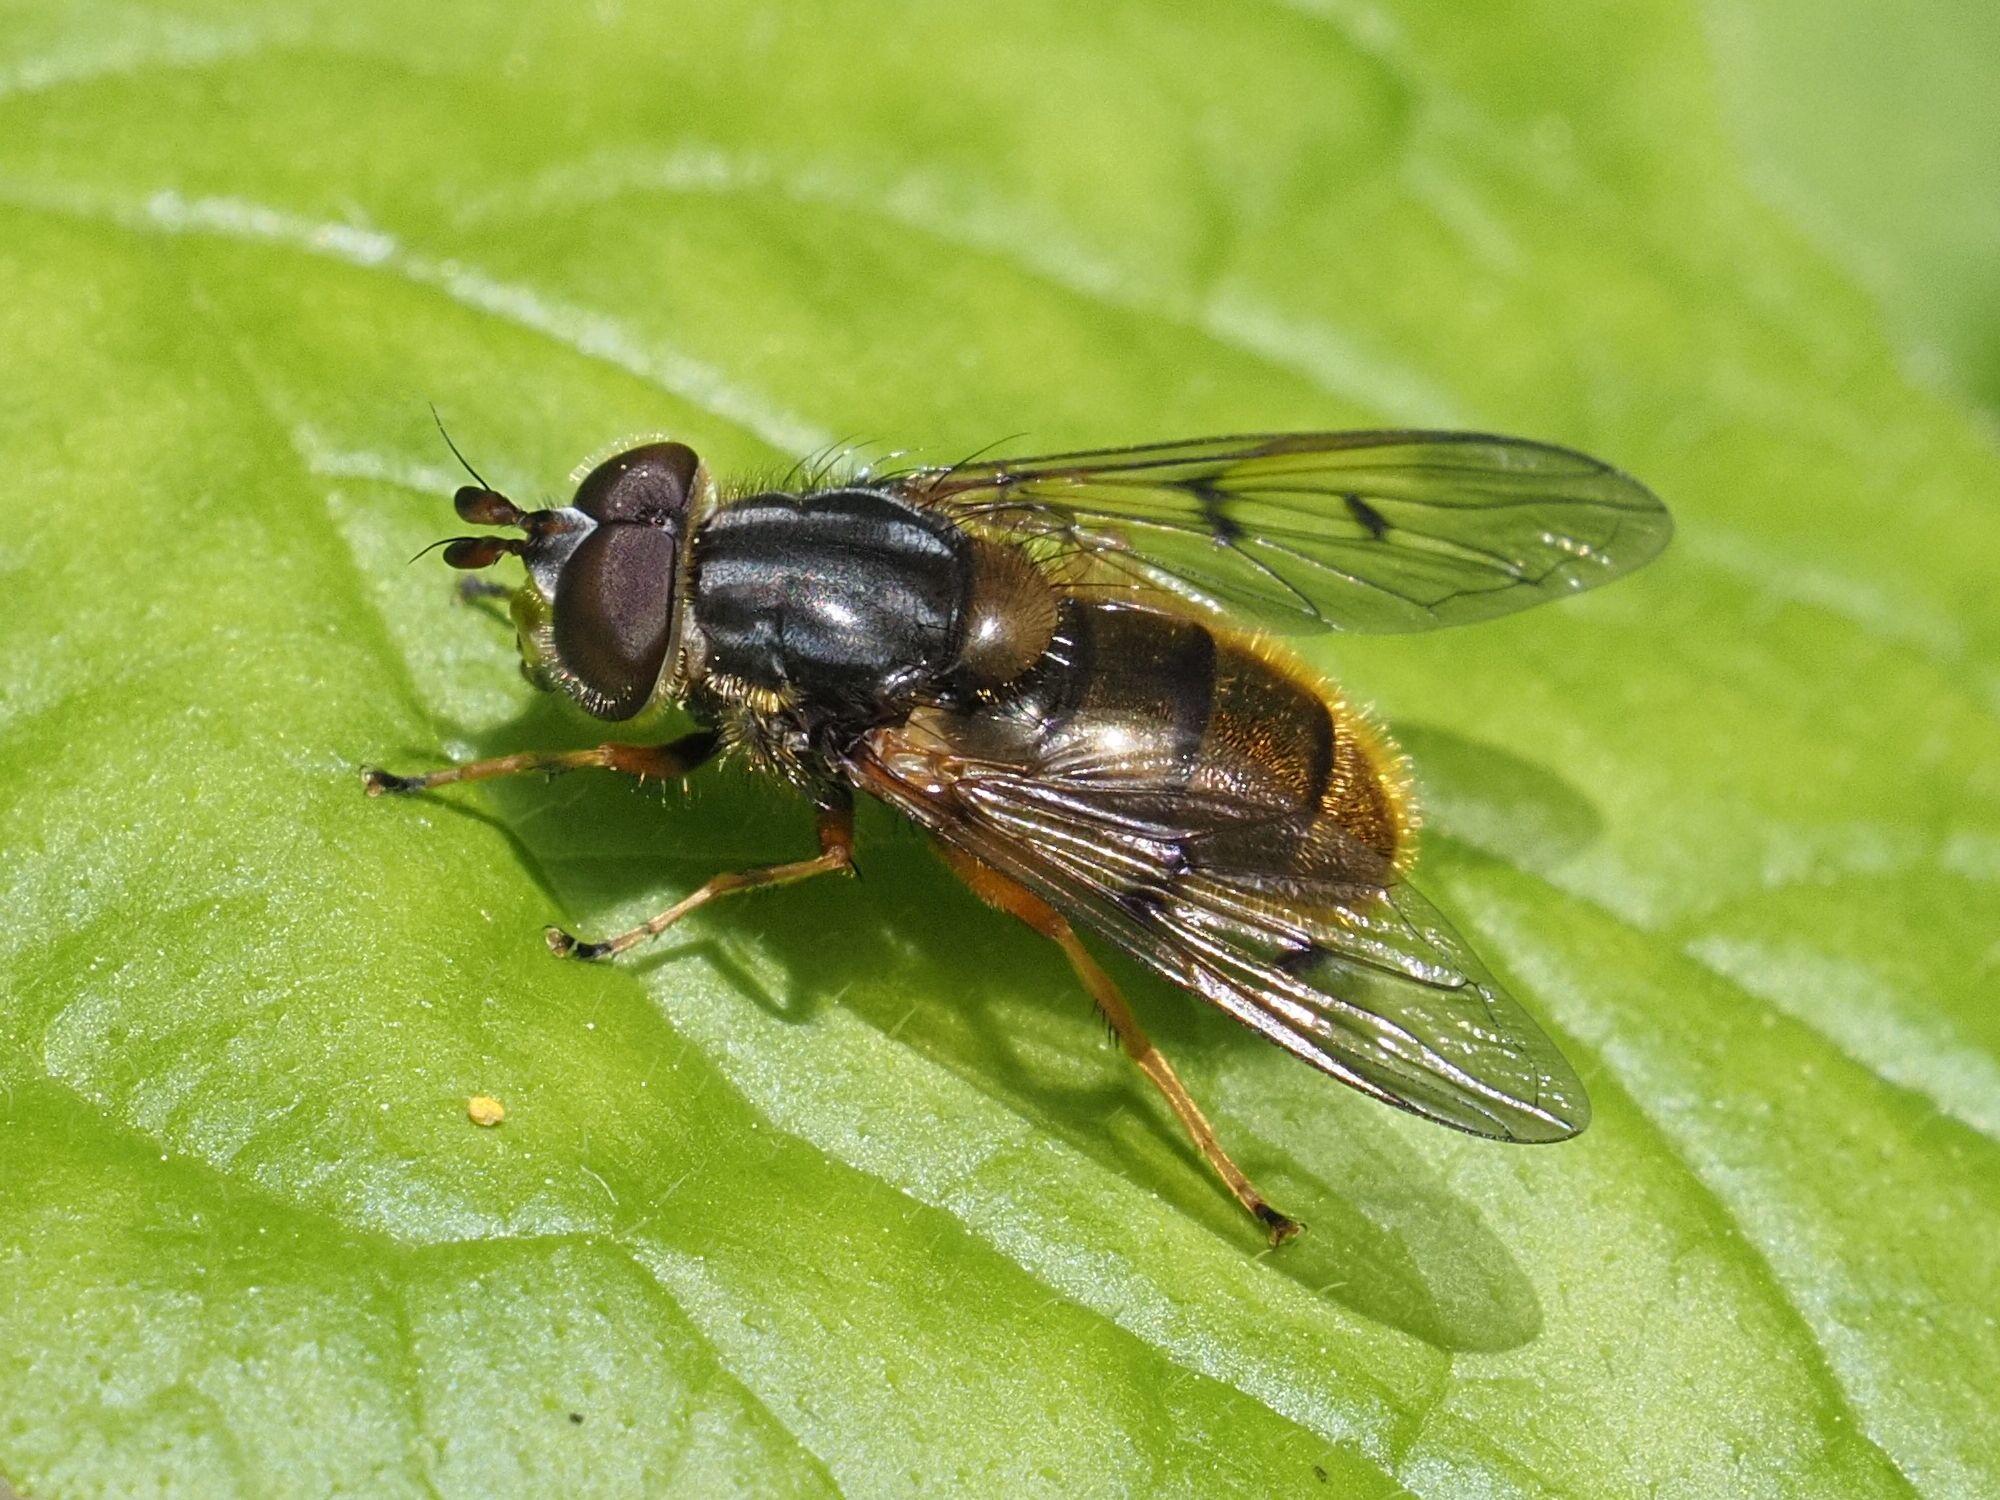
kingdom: Animalia
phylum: Arthropoda
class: Insecta
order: Diptera
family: Syrphidae
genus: Ferdinandea
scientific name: Ferdinandea cuprea
